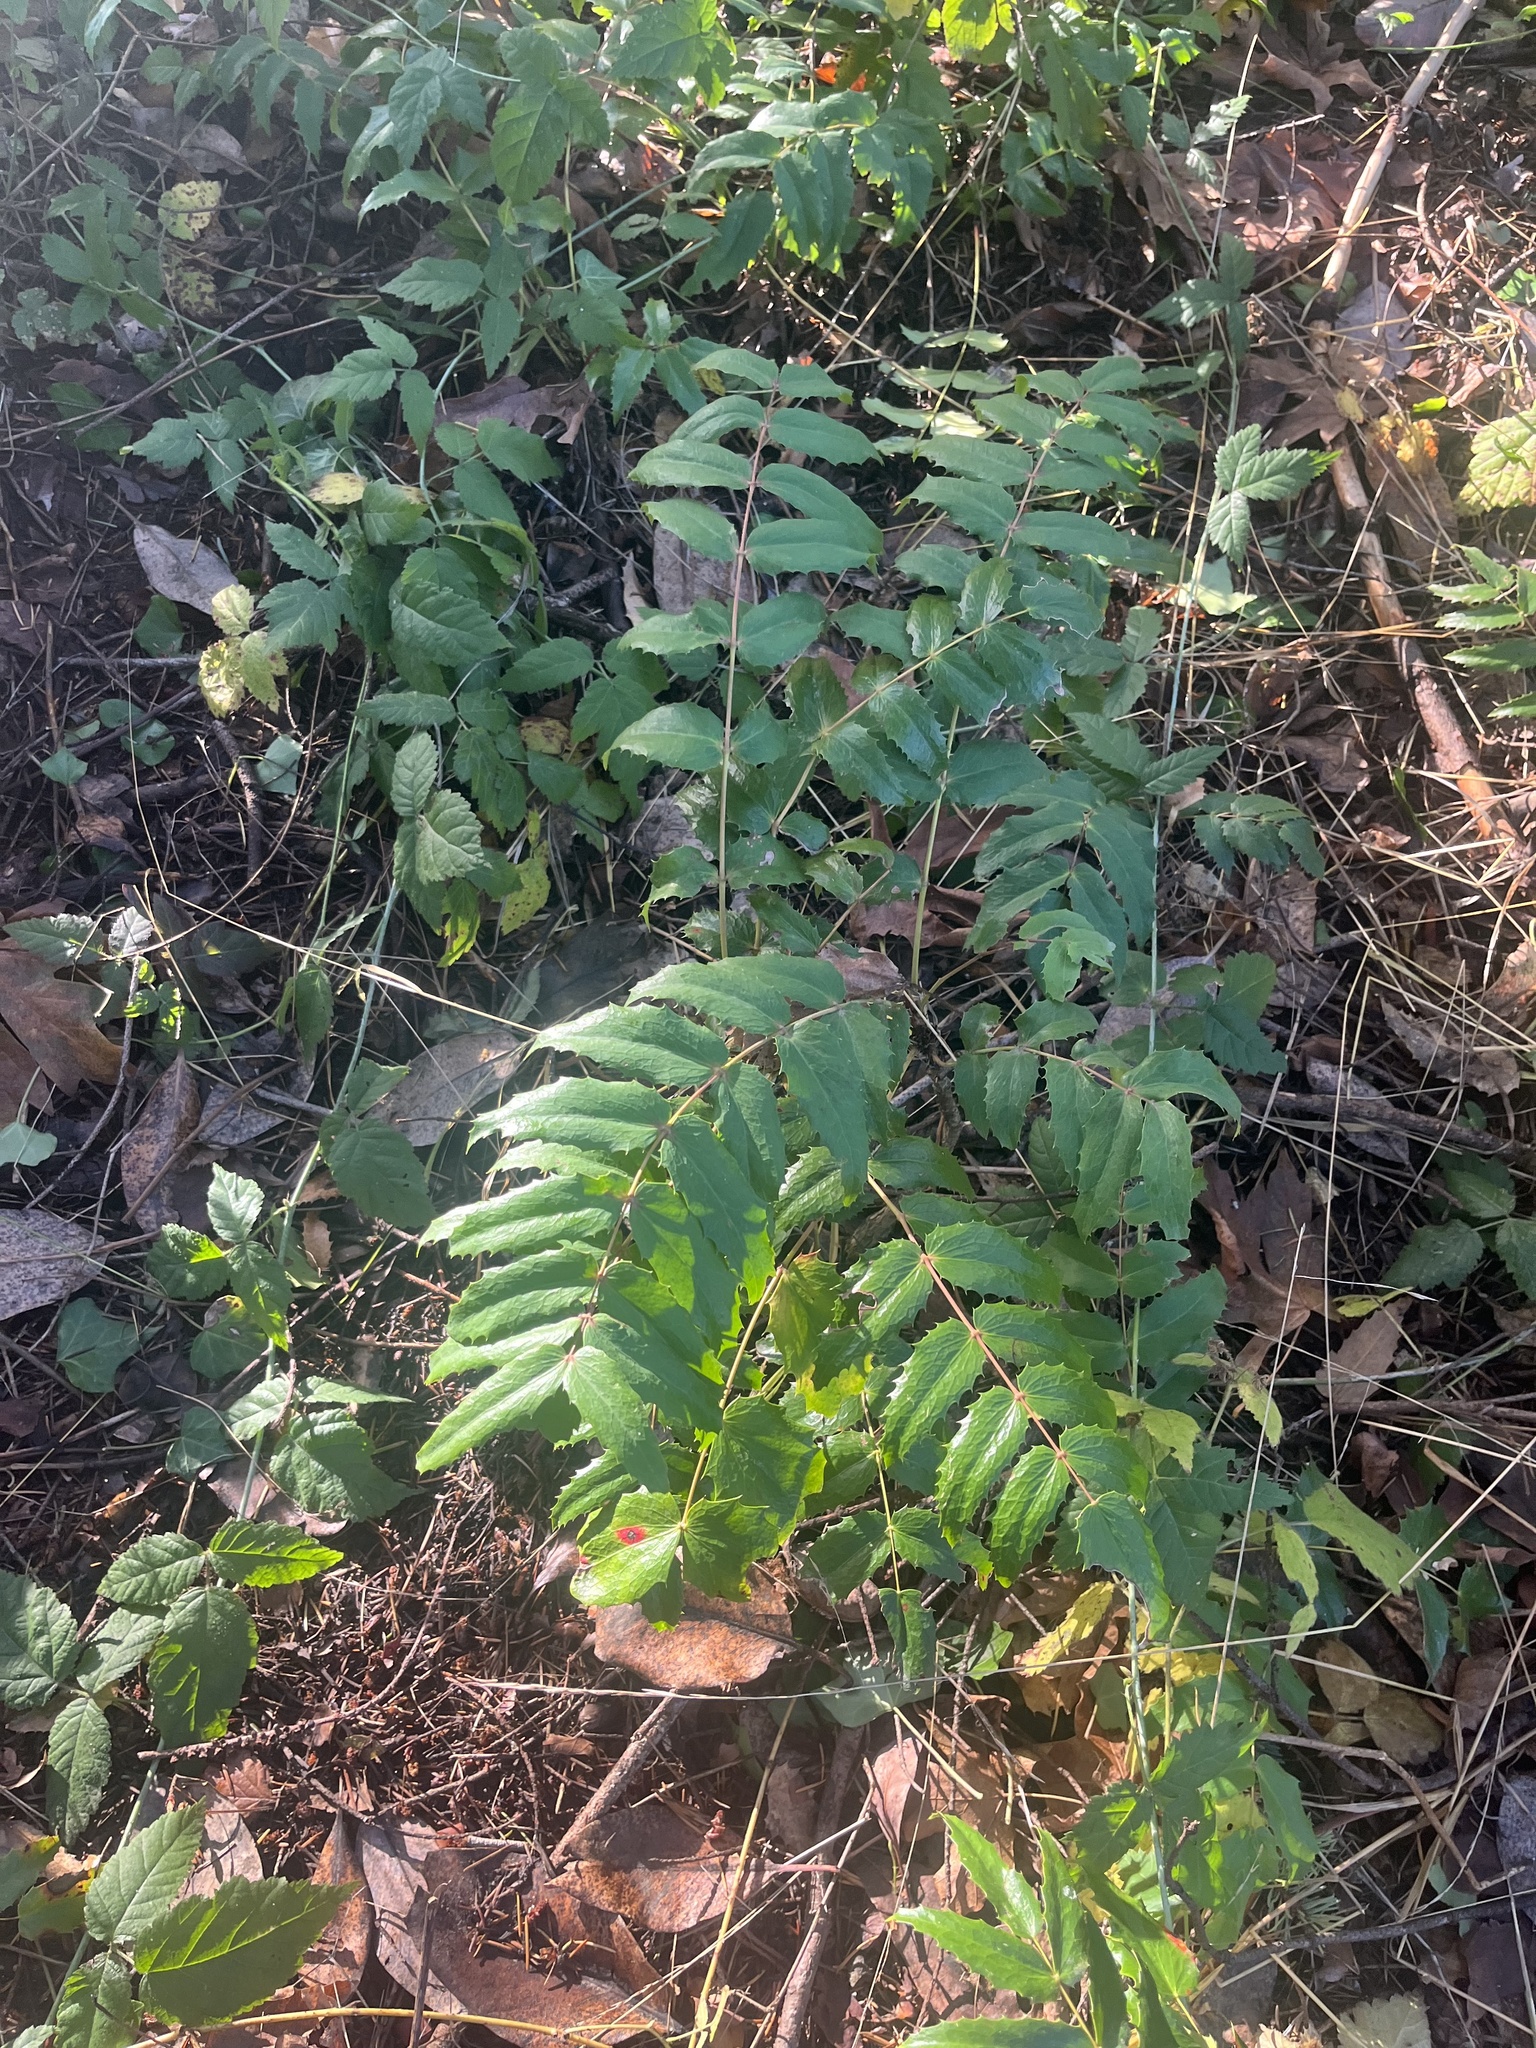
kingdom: Plantae
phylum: Tracheophyta
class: Magnoliopsida
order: Ranunculales
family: Berberidaceae
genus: Mahonia
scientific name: Mahonia nervosa
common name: Cascade oregon-grape
